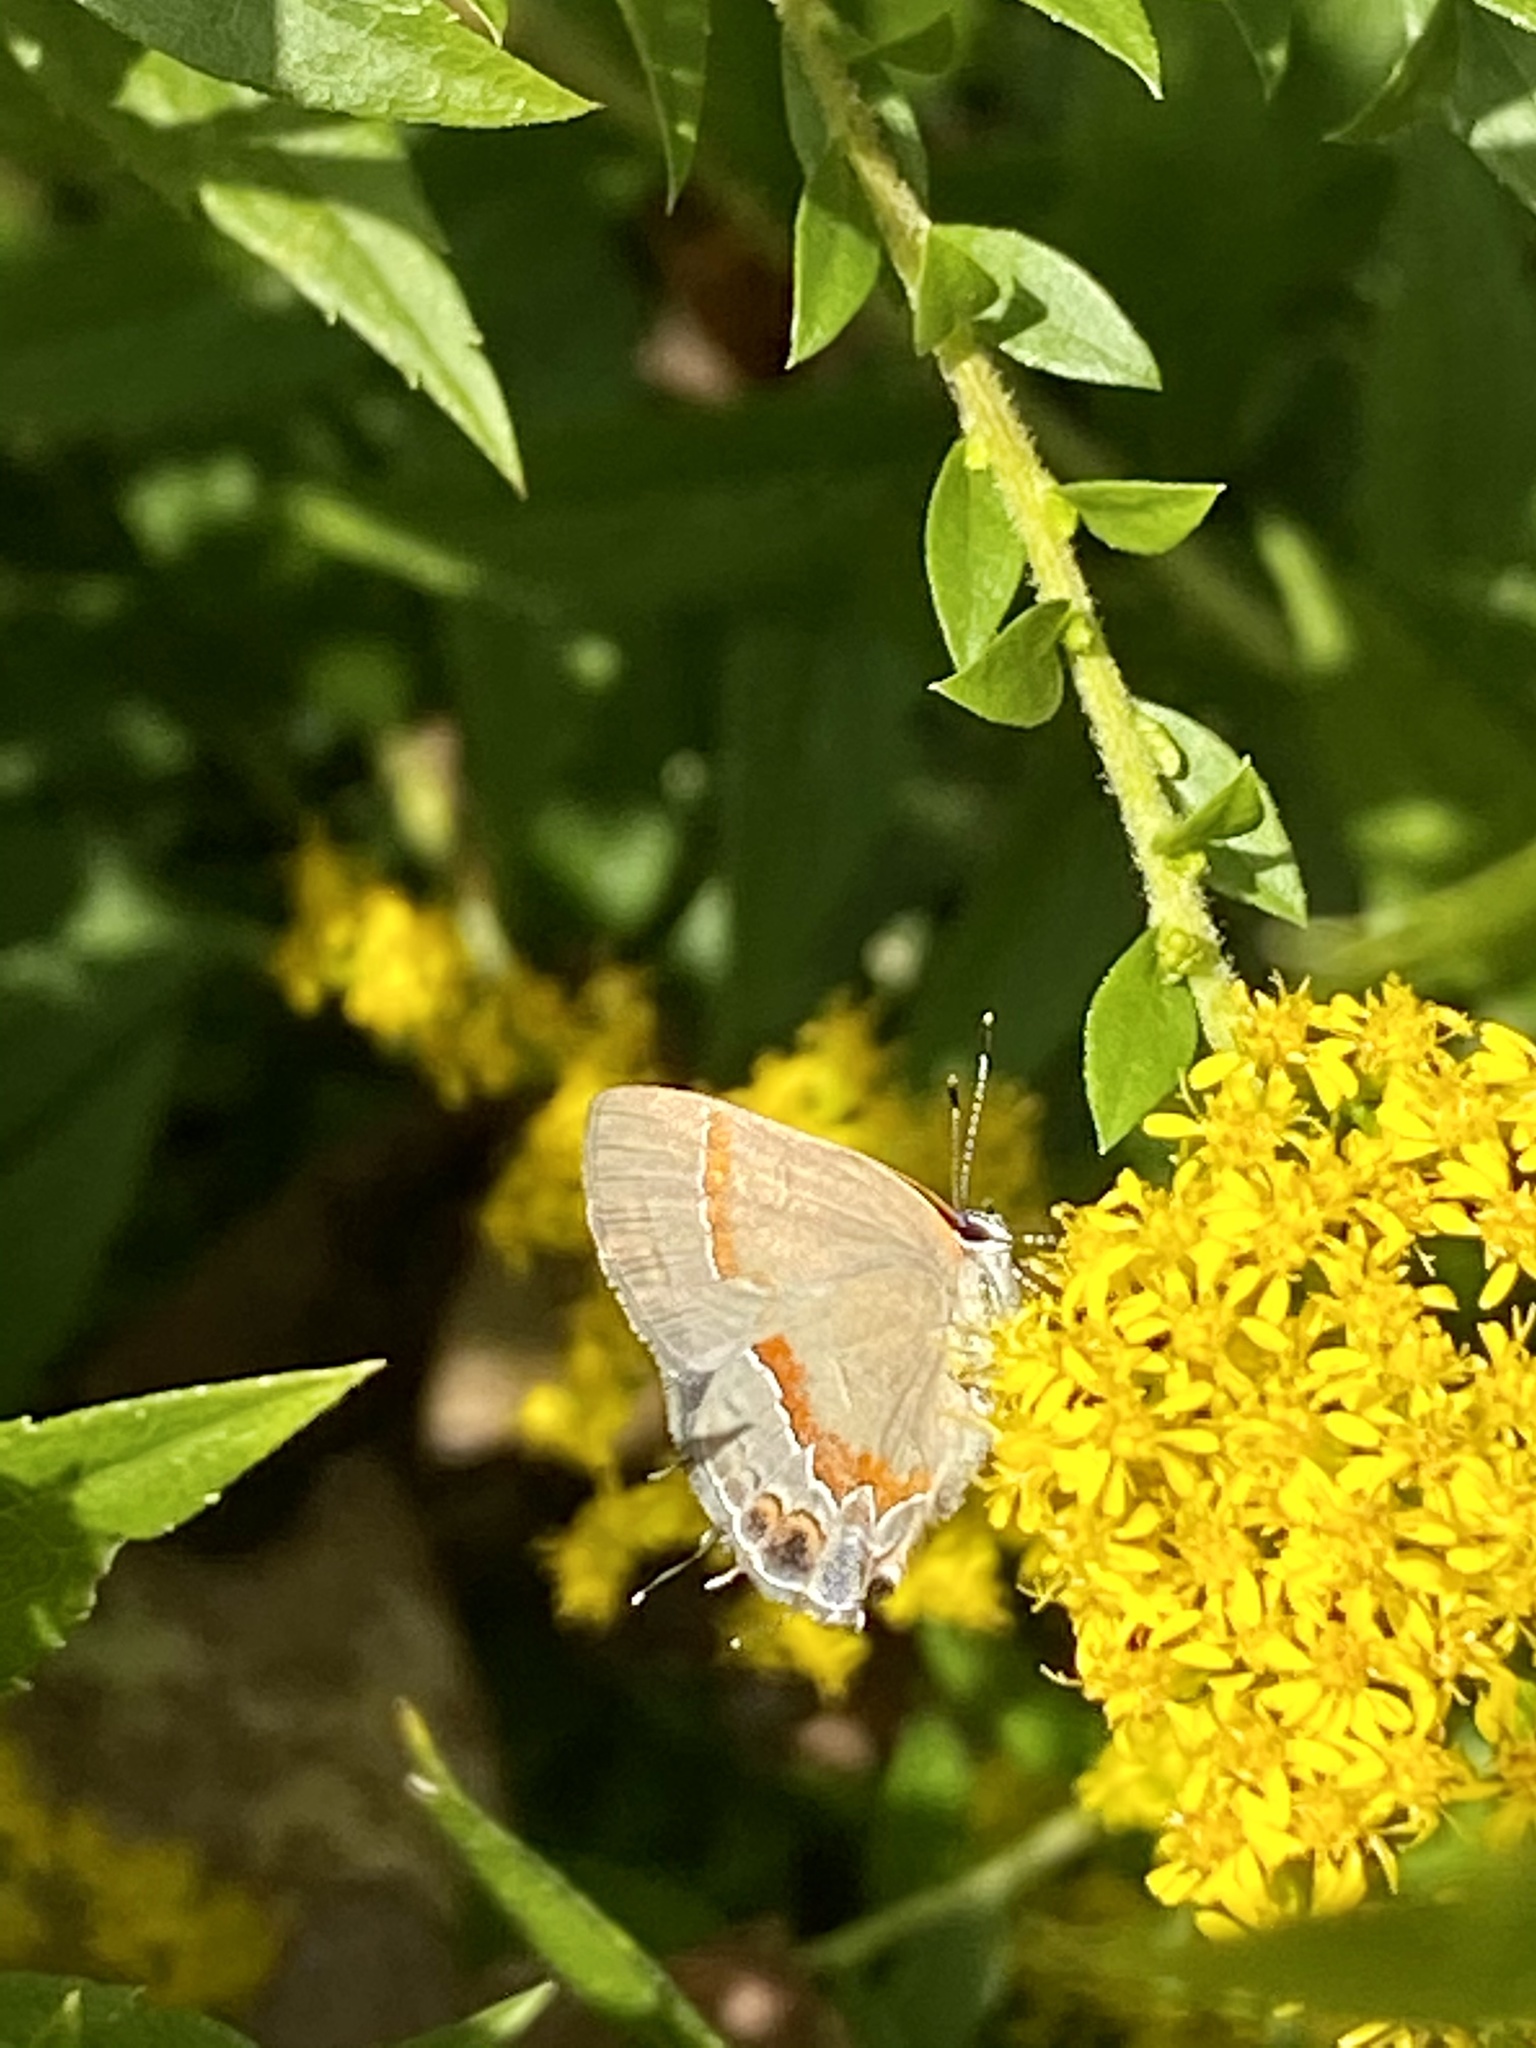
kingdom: Animalia
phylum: Arthropoda
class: Insecta
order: Lepidoptera
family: Lycaenidae
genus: Calycopis
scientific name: Calycopis cecrops
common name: Red-banded hairstreak
